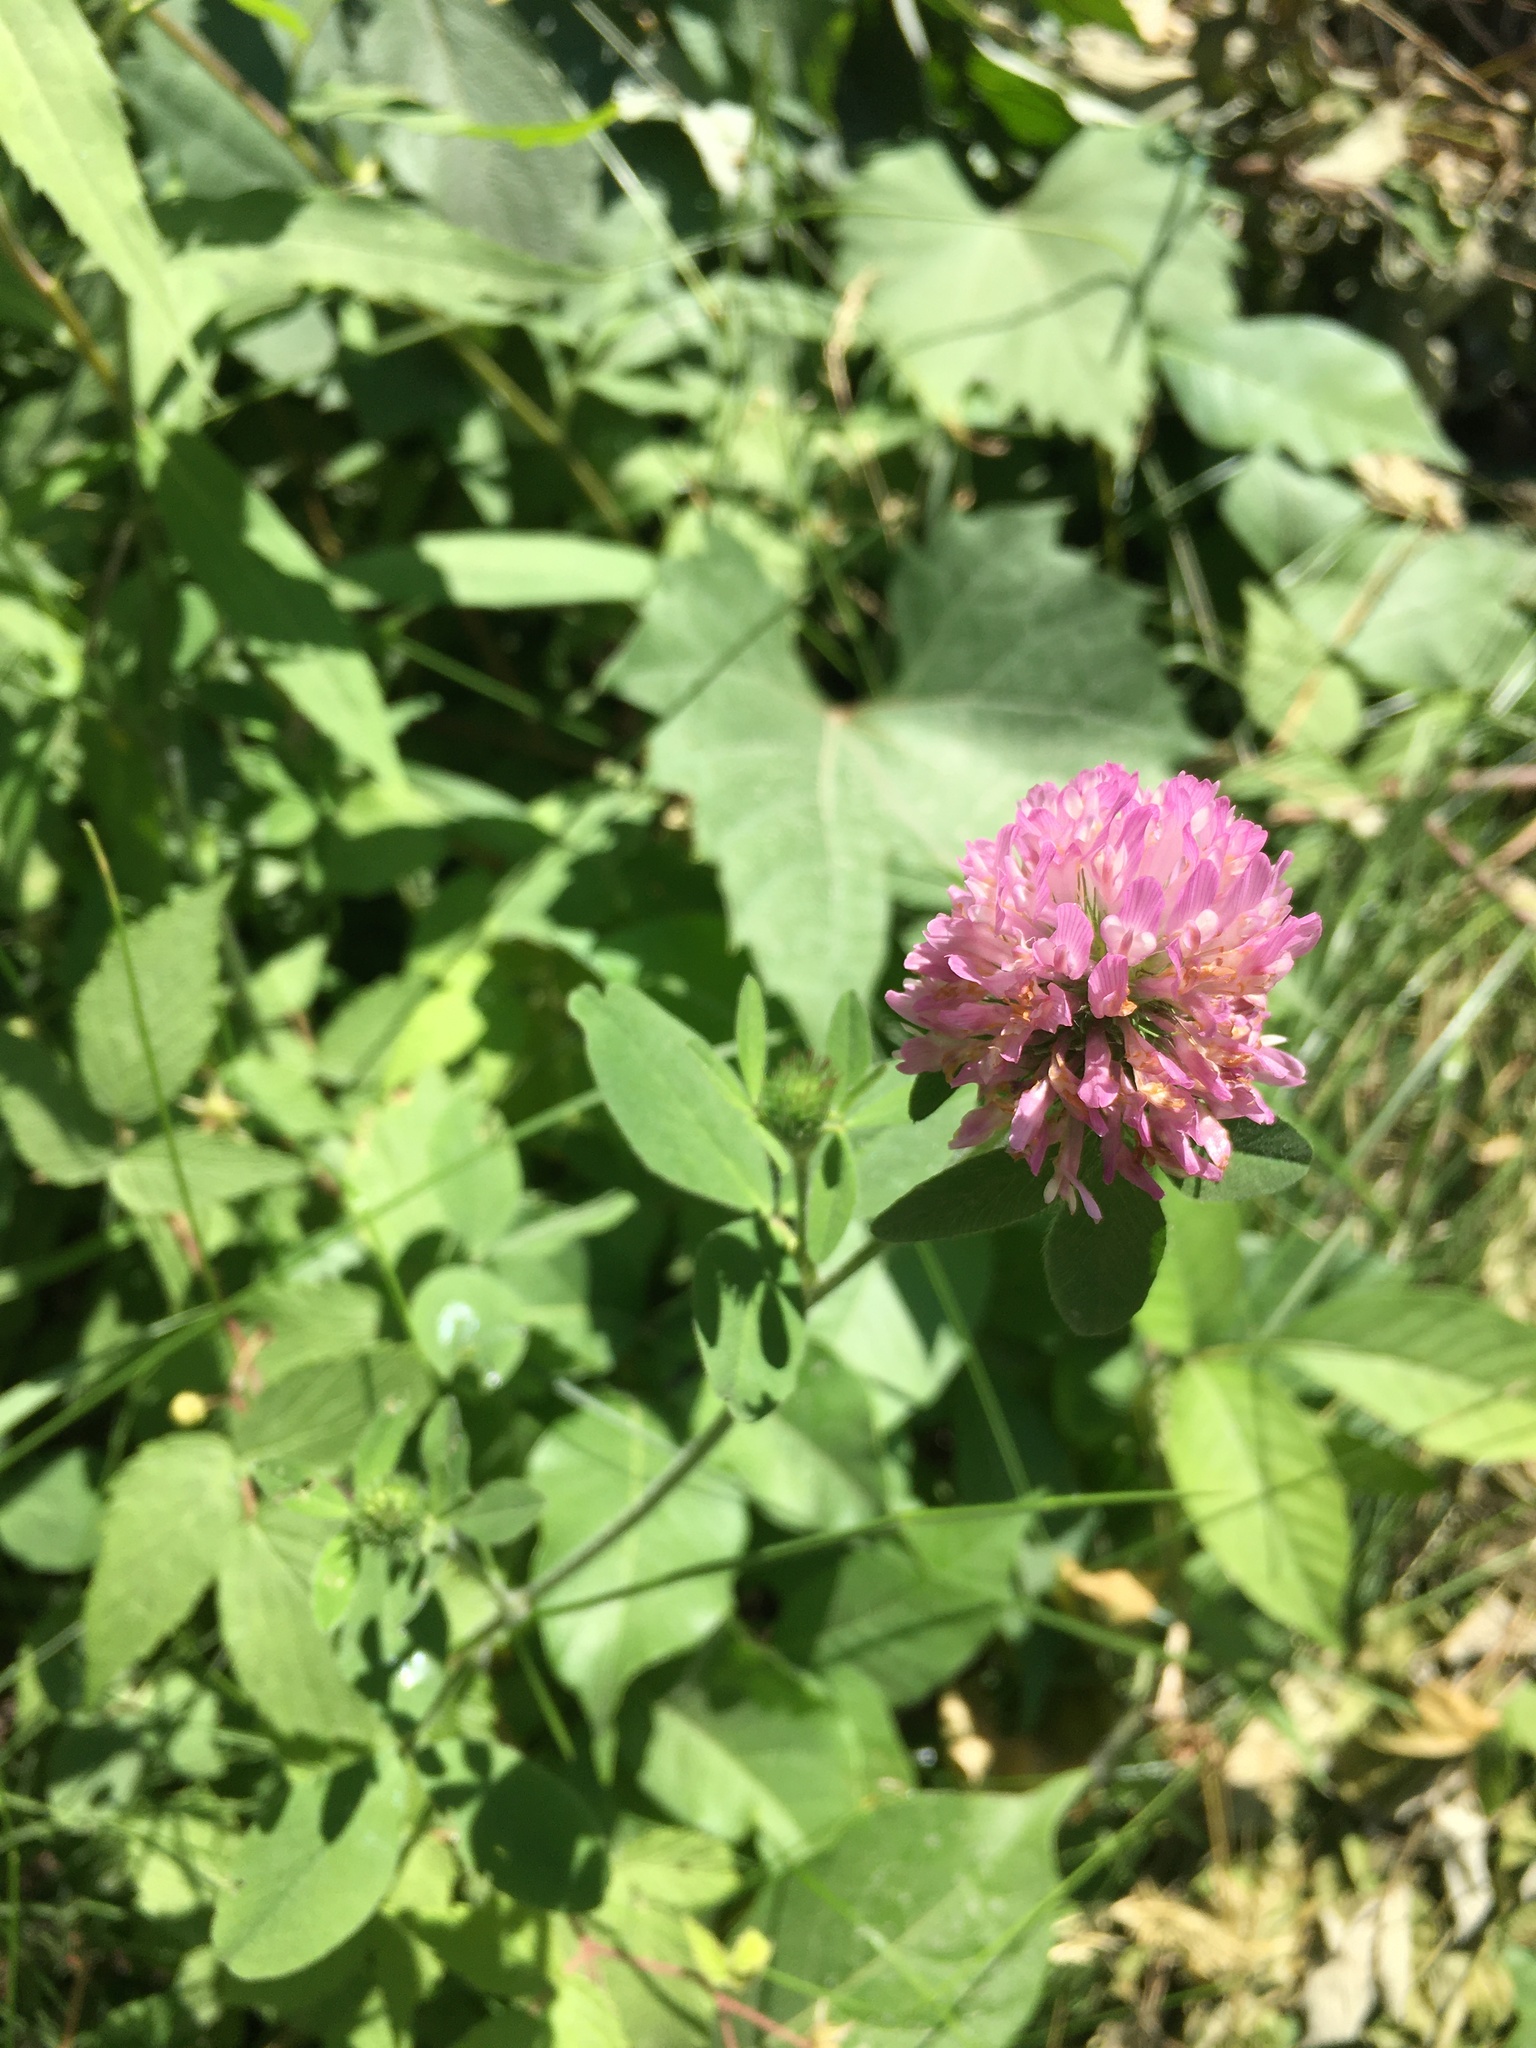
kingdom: Plantae
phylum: Tracheophyta
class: Magnoliopsida
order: Fabales
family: Fabaceae
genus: Trifolium
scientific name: Trifolium pratense
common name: Red clover
